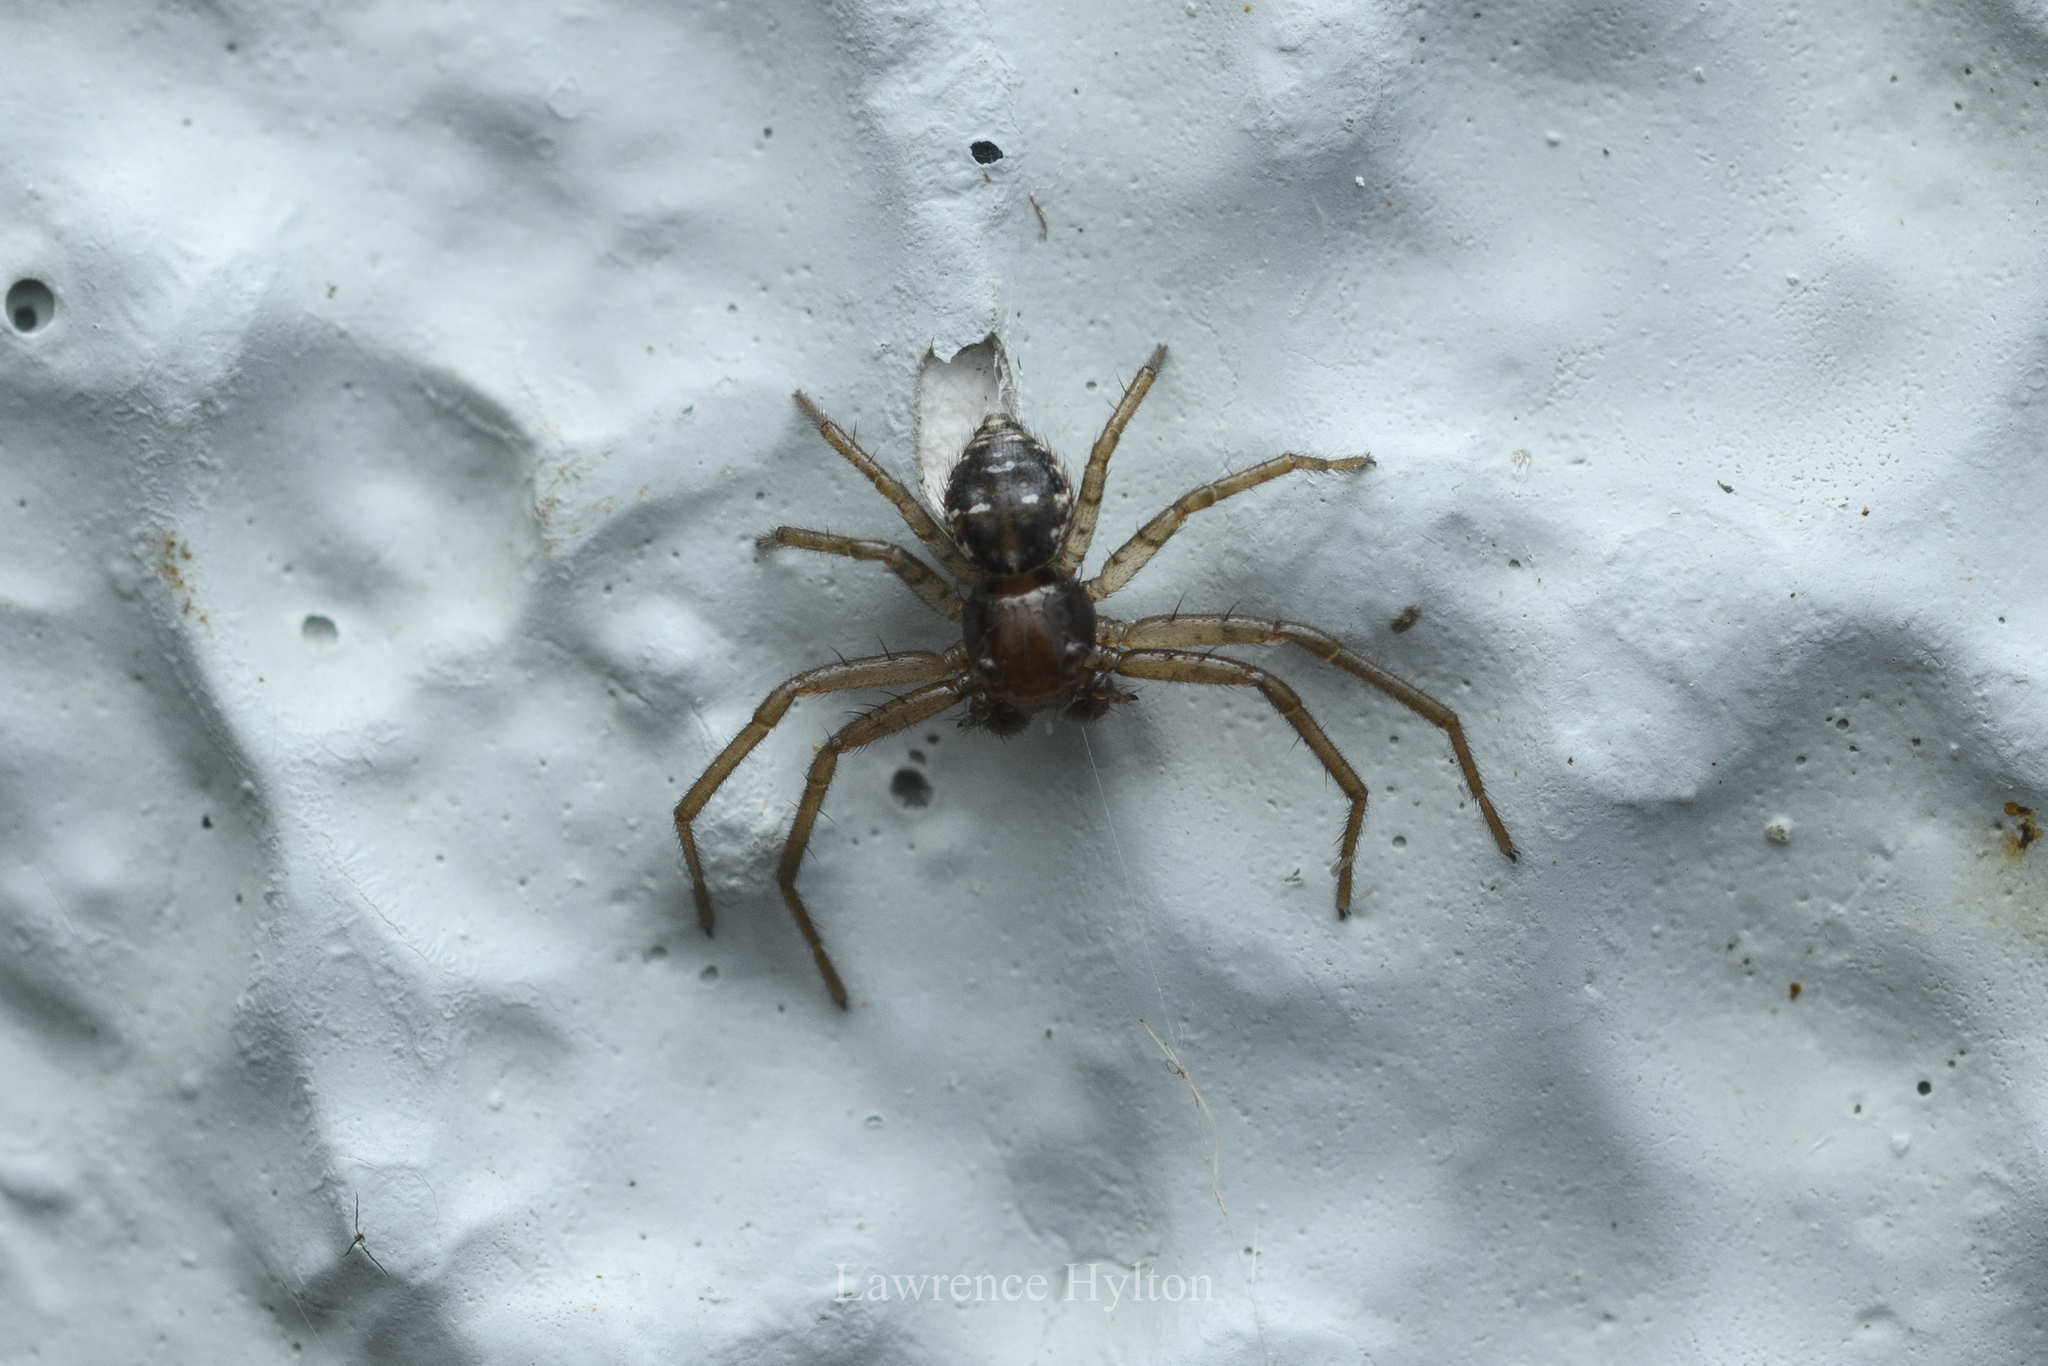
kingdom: Animalia
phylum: Arthropoda
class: Arachnida
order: Araneae
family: Thomisidae
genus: Philodamia
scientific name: Philodamia pingxiang
